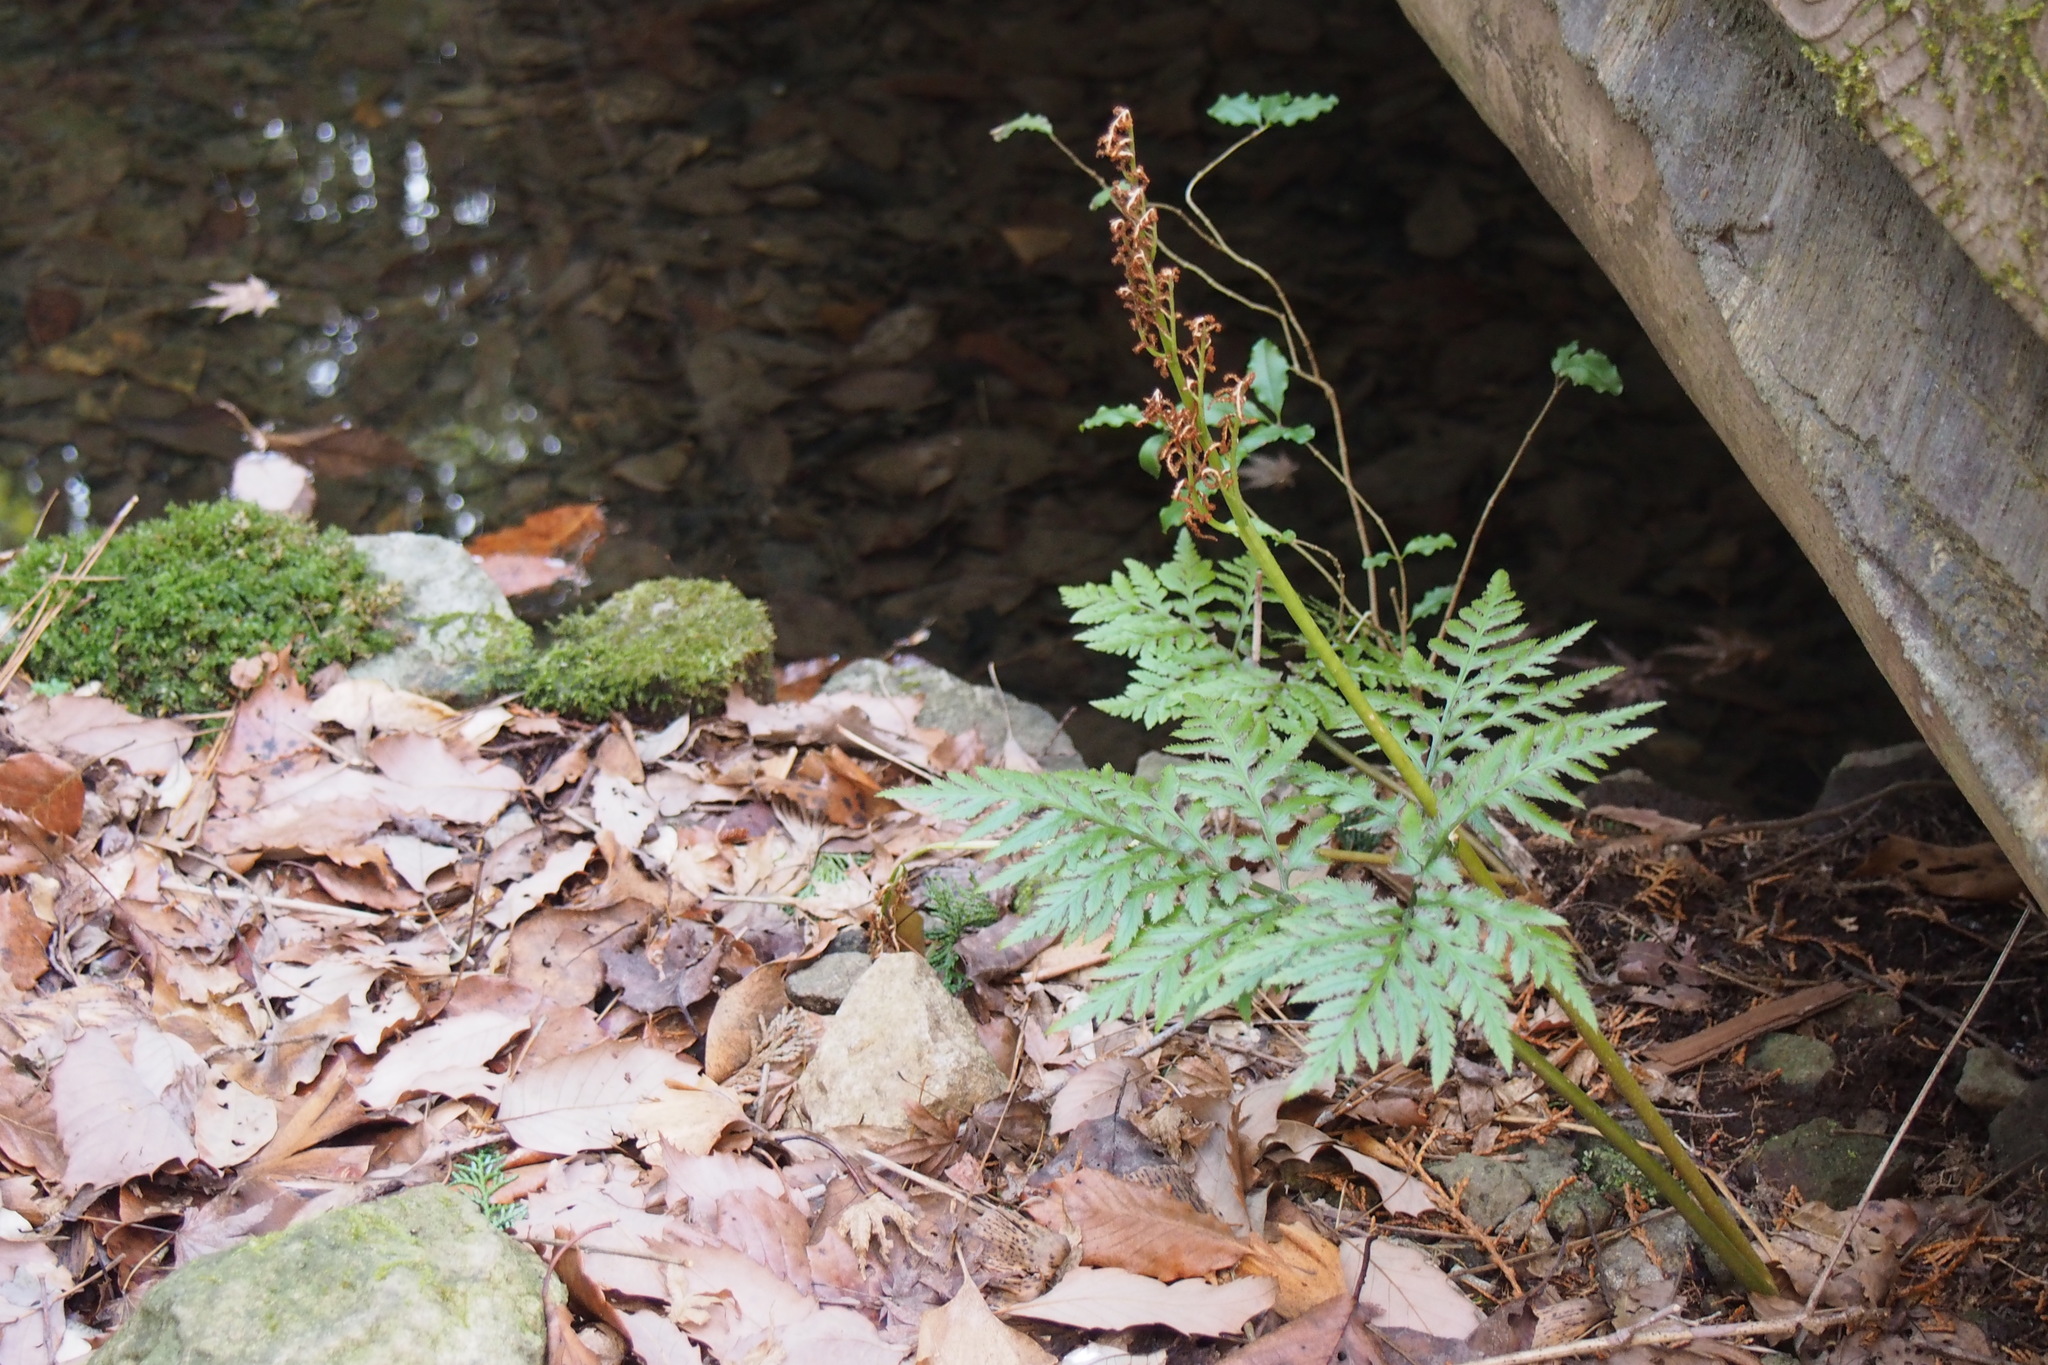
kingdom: Plantae
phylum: Tracheophyta
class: Polypodiopsida
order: Ophioglossales
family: Ophioglossaceae
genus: Sceptridium
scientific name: Sceptridium japonicum
